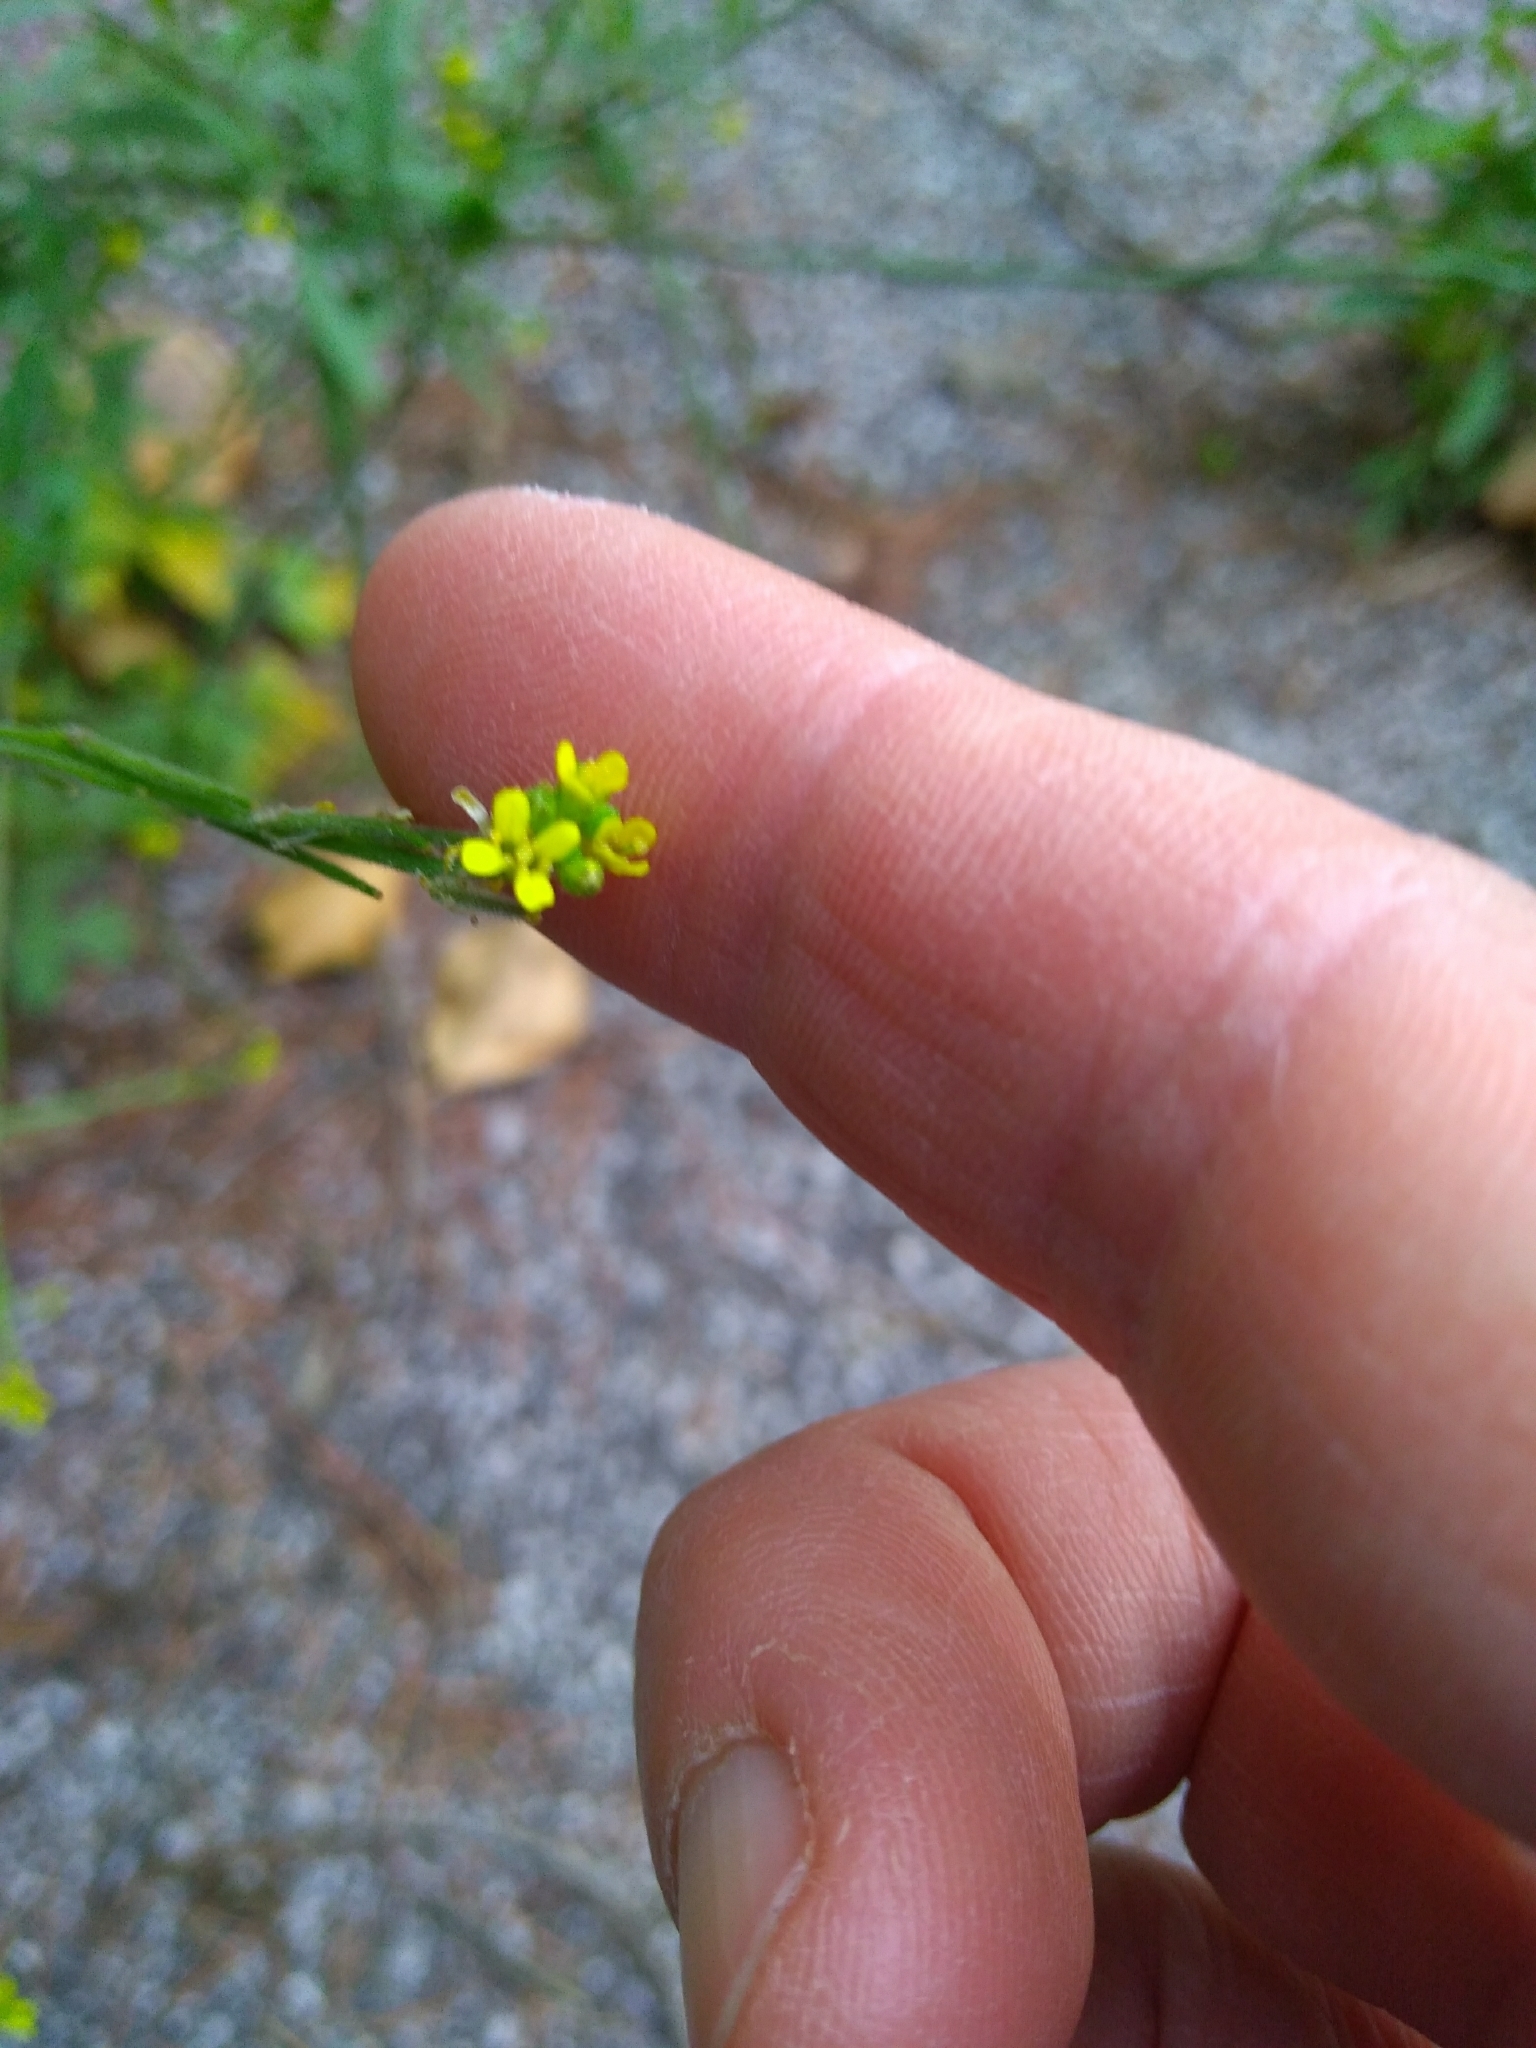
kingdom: Plantae
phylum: Tracheophyta
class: Magnoliopsida
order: Brassicales
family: Brassicaceae
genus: Sisymbrium
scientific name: Sisymbrium officinale
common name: Hedge mustard
